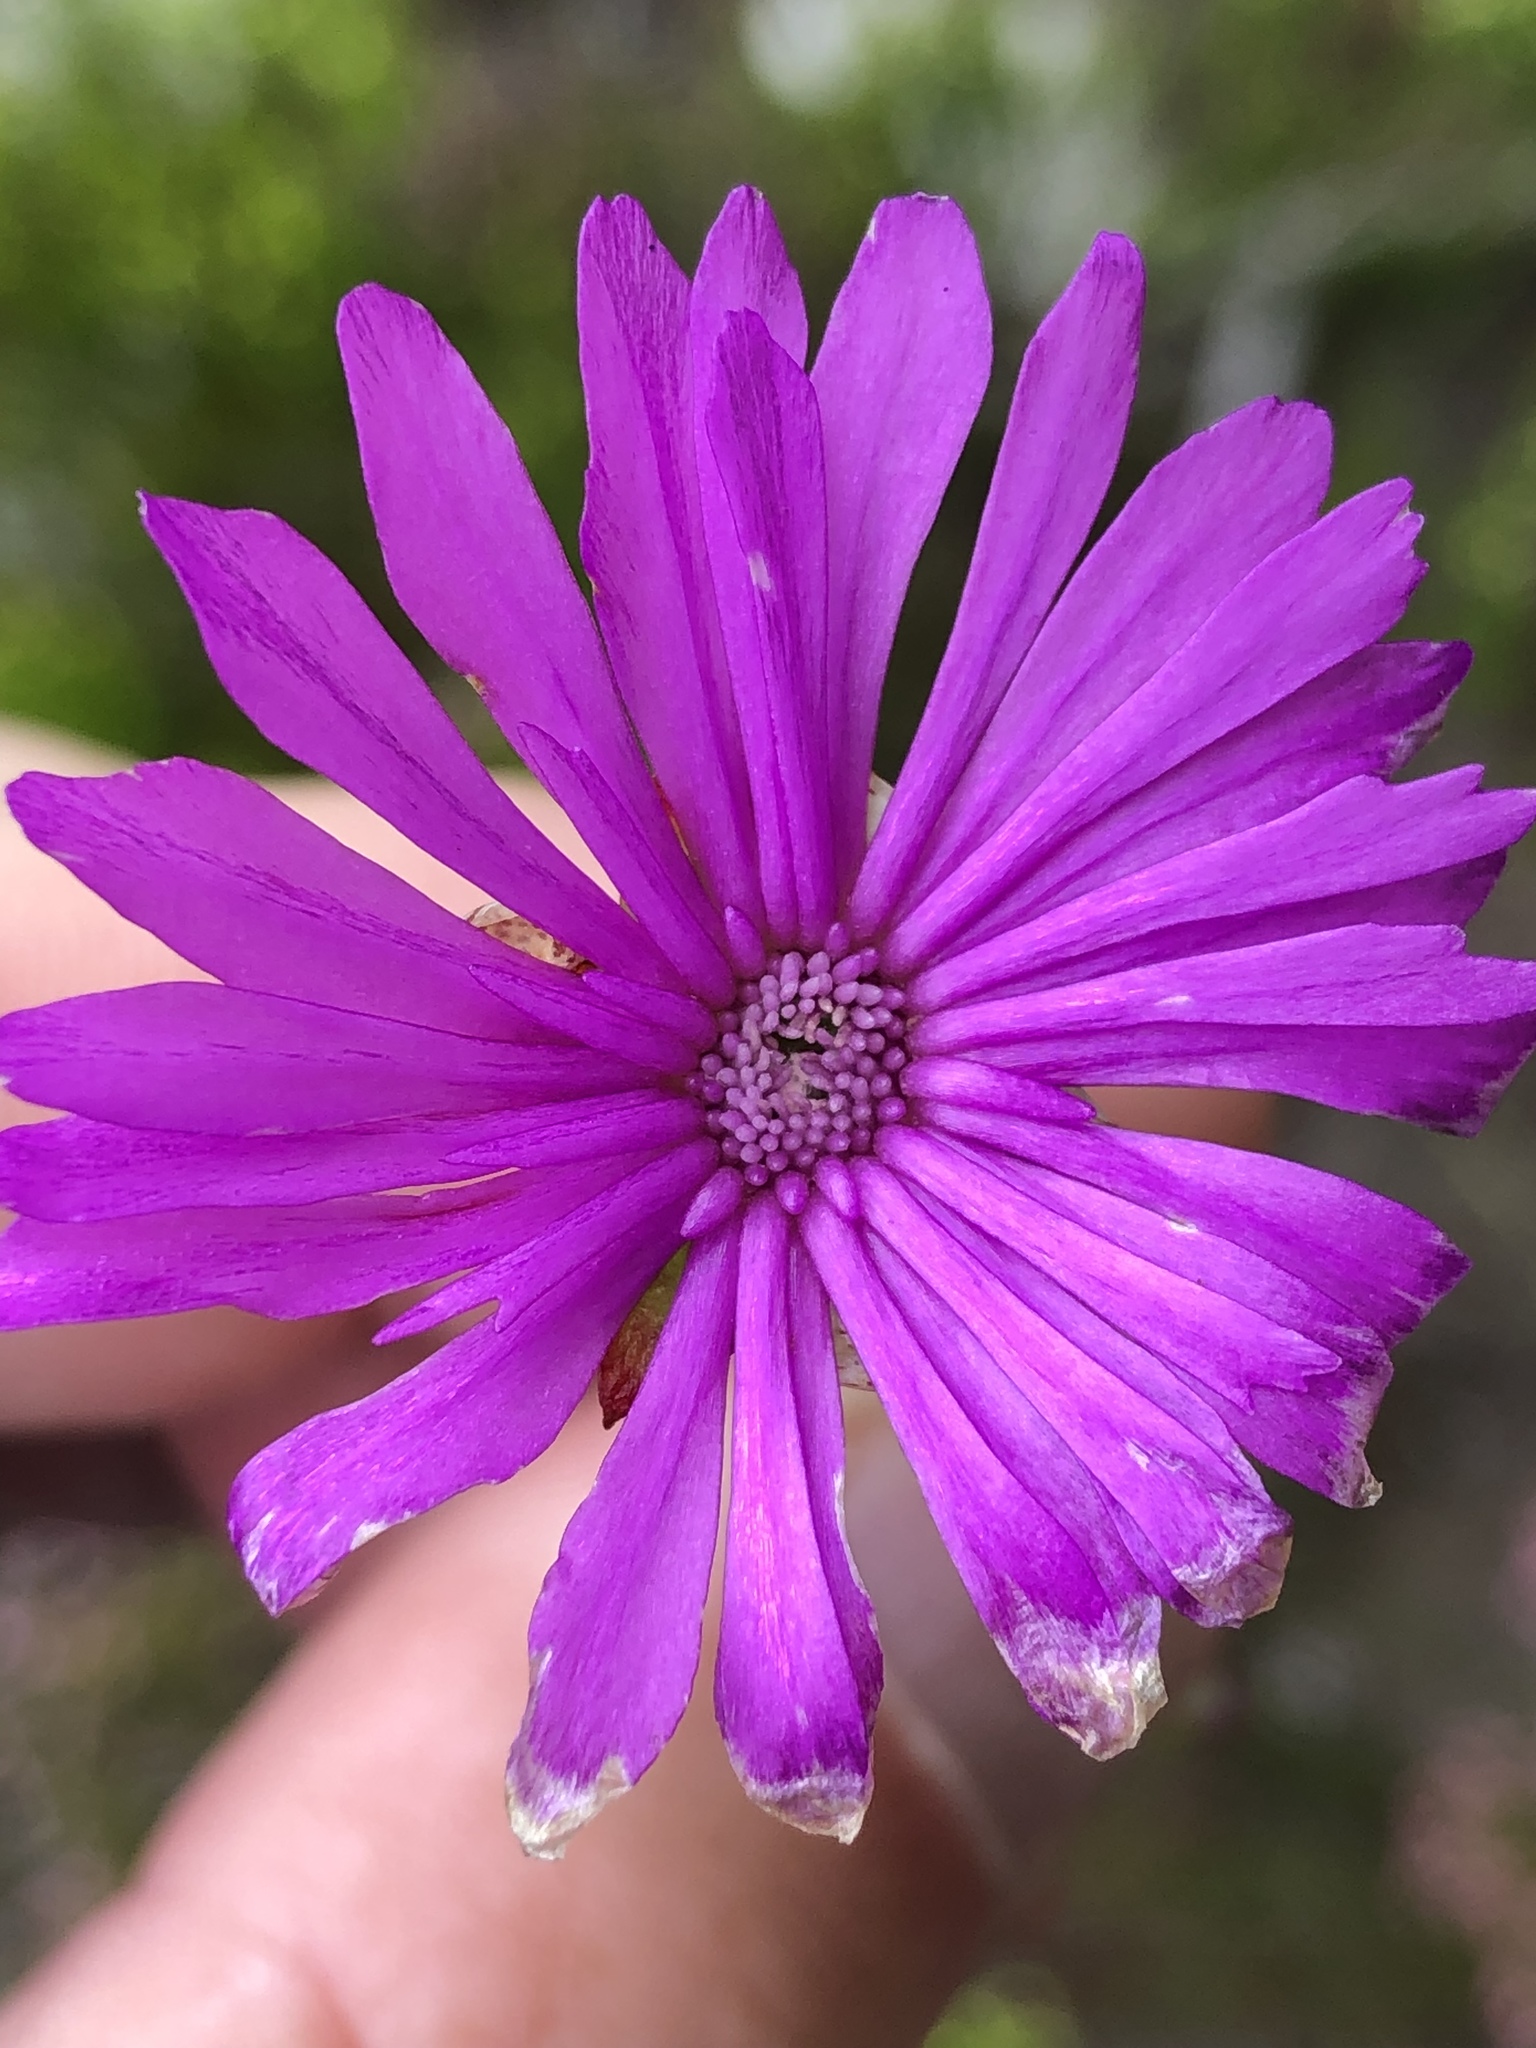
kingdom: Plantae
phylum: Tracheophyta
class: Magnoliopsida
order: Caryophyllales
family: Aizoaceae
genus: Erepsia
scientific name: Erepsia inclaudens
